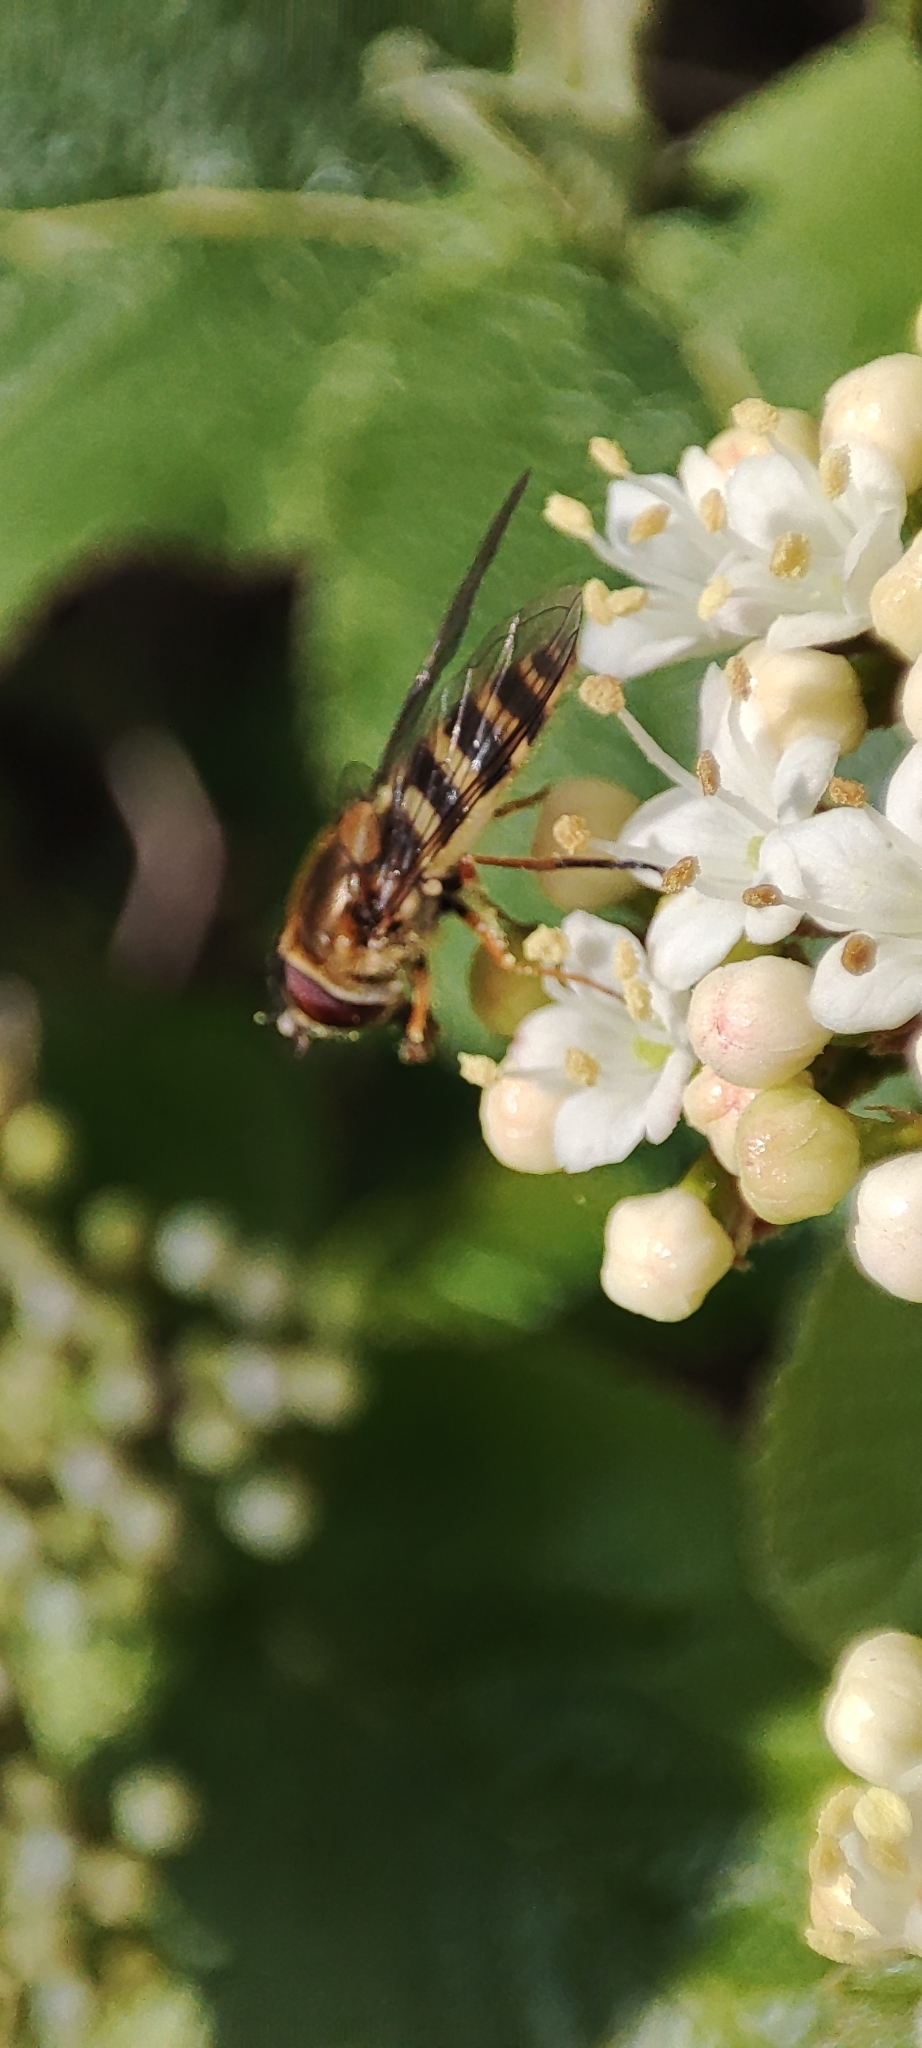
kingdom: Animalia
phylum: Arthropoda
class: Insecta
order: Diptera
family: Syrphidae
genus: Syrphus
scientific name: Syrphus
